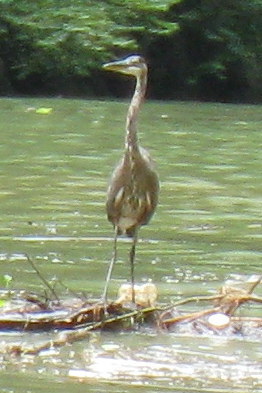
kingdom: Animalia
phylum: Chordata
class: Aves
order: Pelecaniformes
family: Ardeidae
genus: Ardea
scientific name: Ardea herodias
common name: Great blue heron
